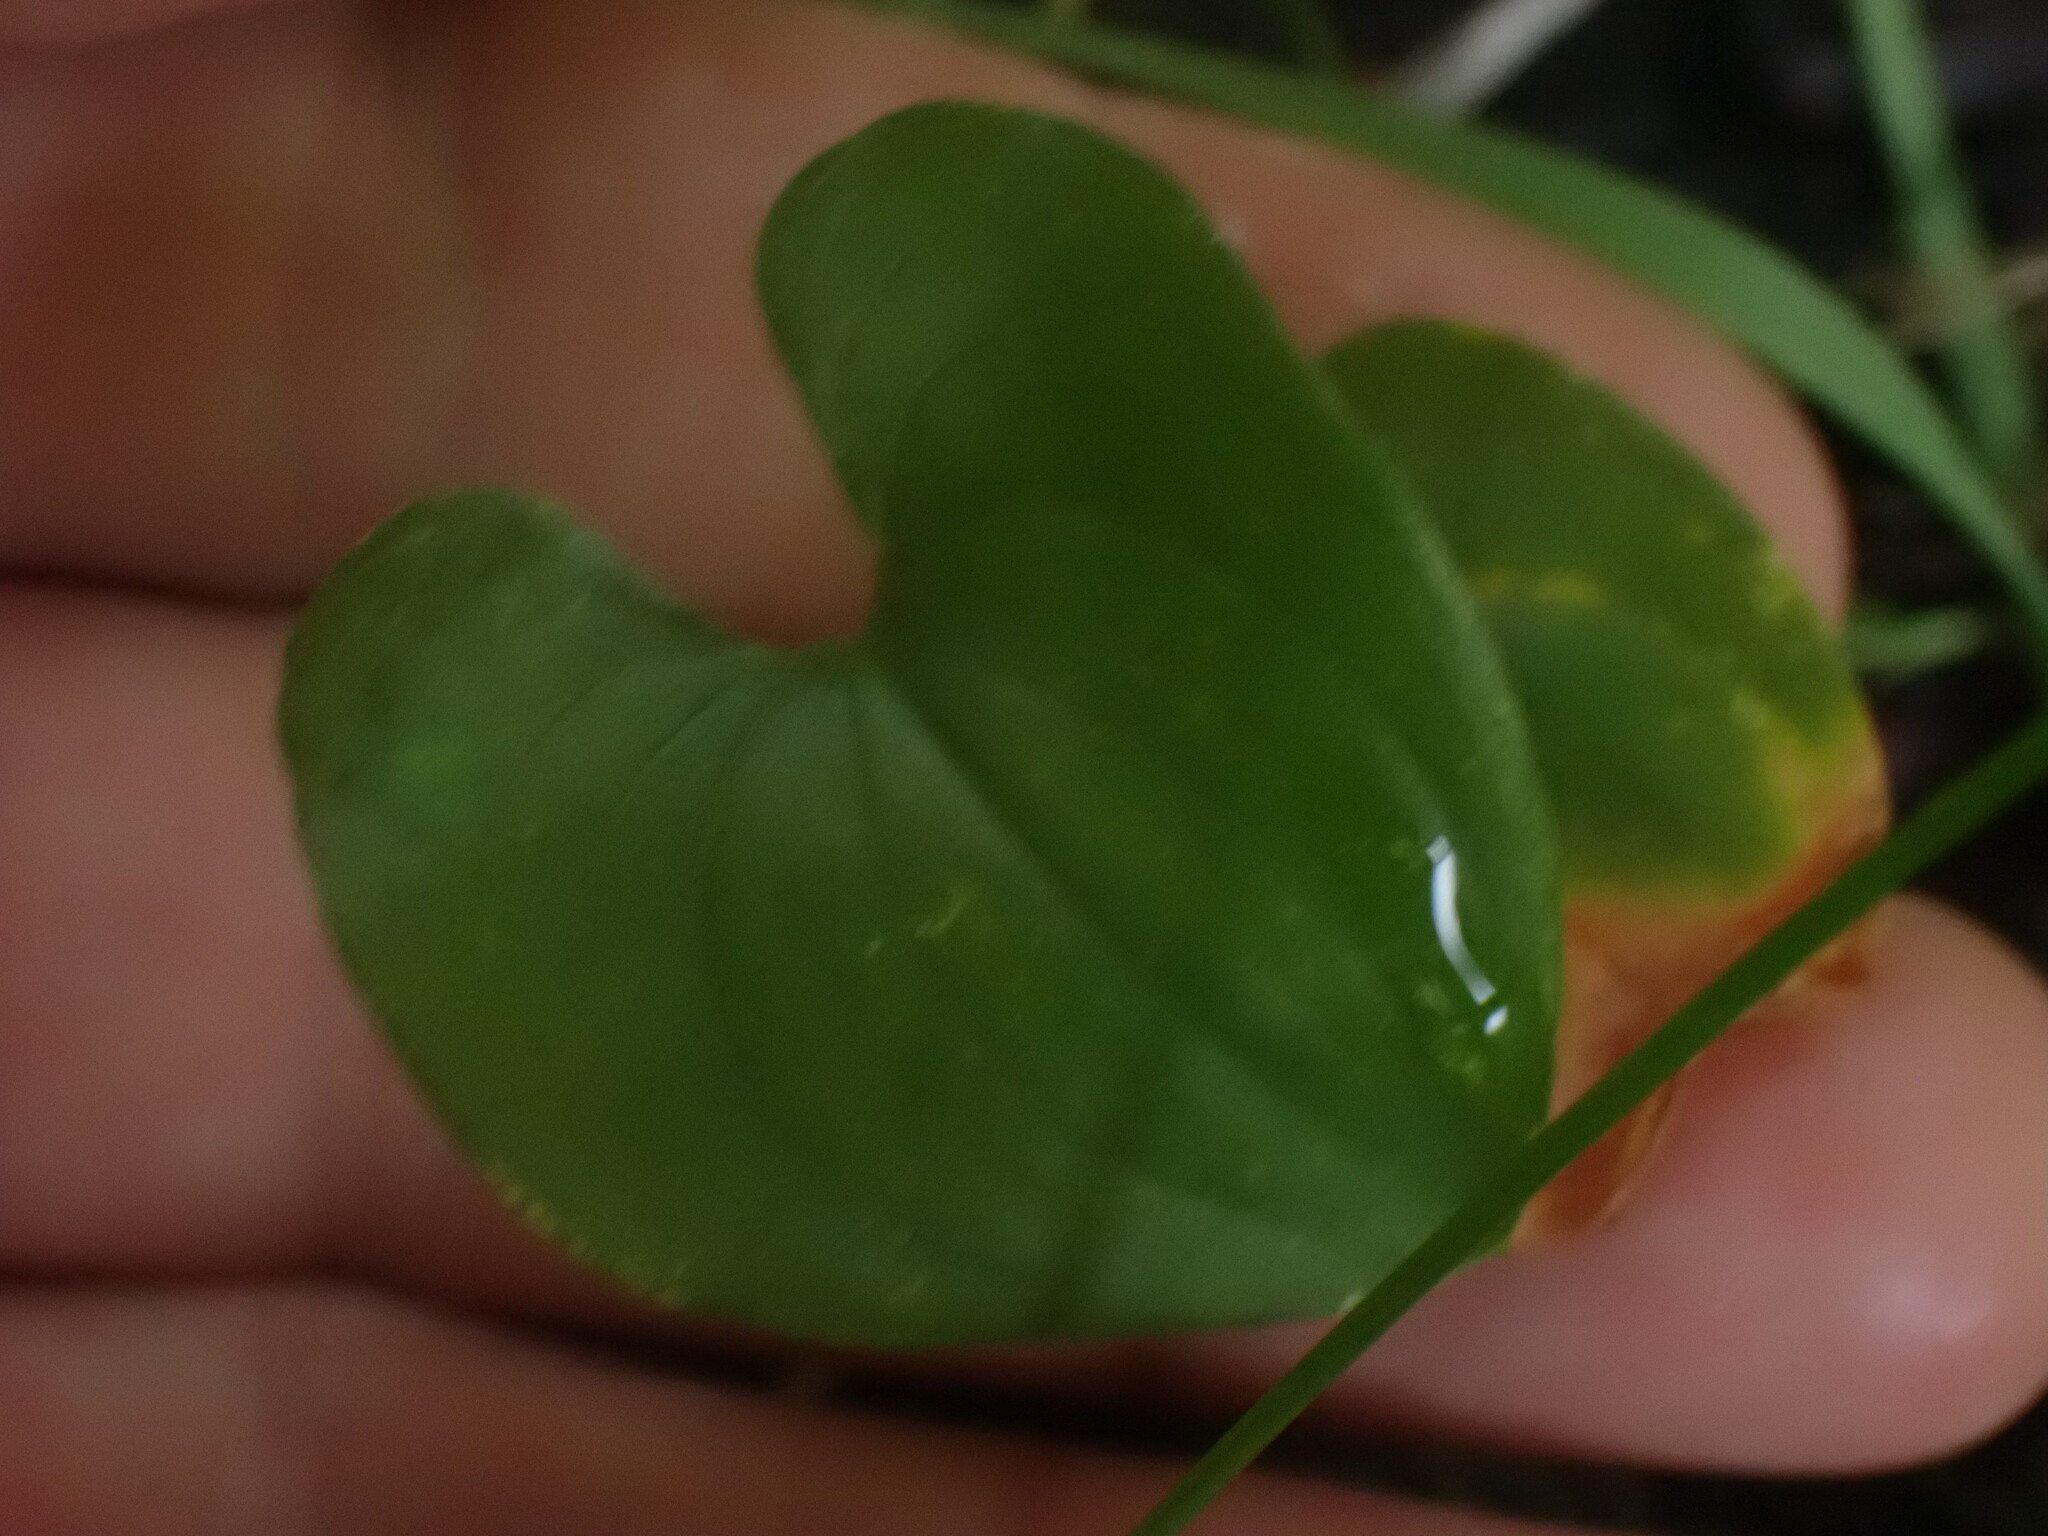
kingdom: Plantae
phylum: Tracheophyta
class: Liliopsida
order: Asparagales
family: Asparagaceae
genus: Maianthemum
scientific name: Maianthemum dilatatum
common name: False lily-of-the-valley
